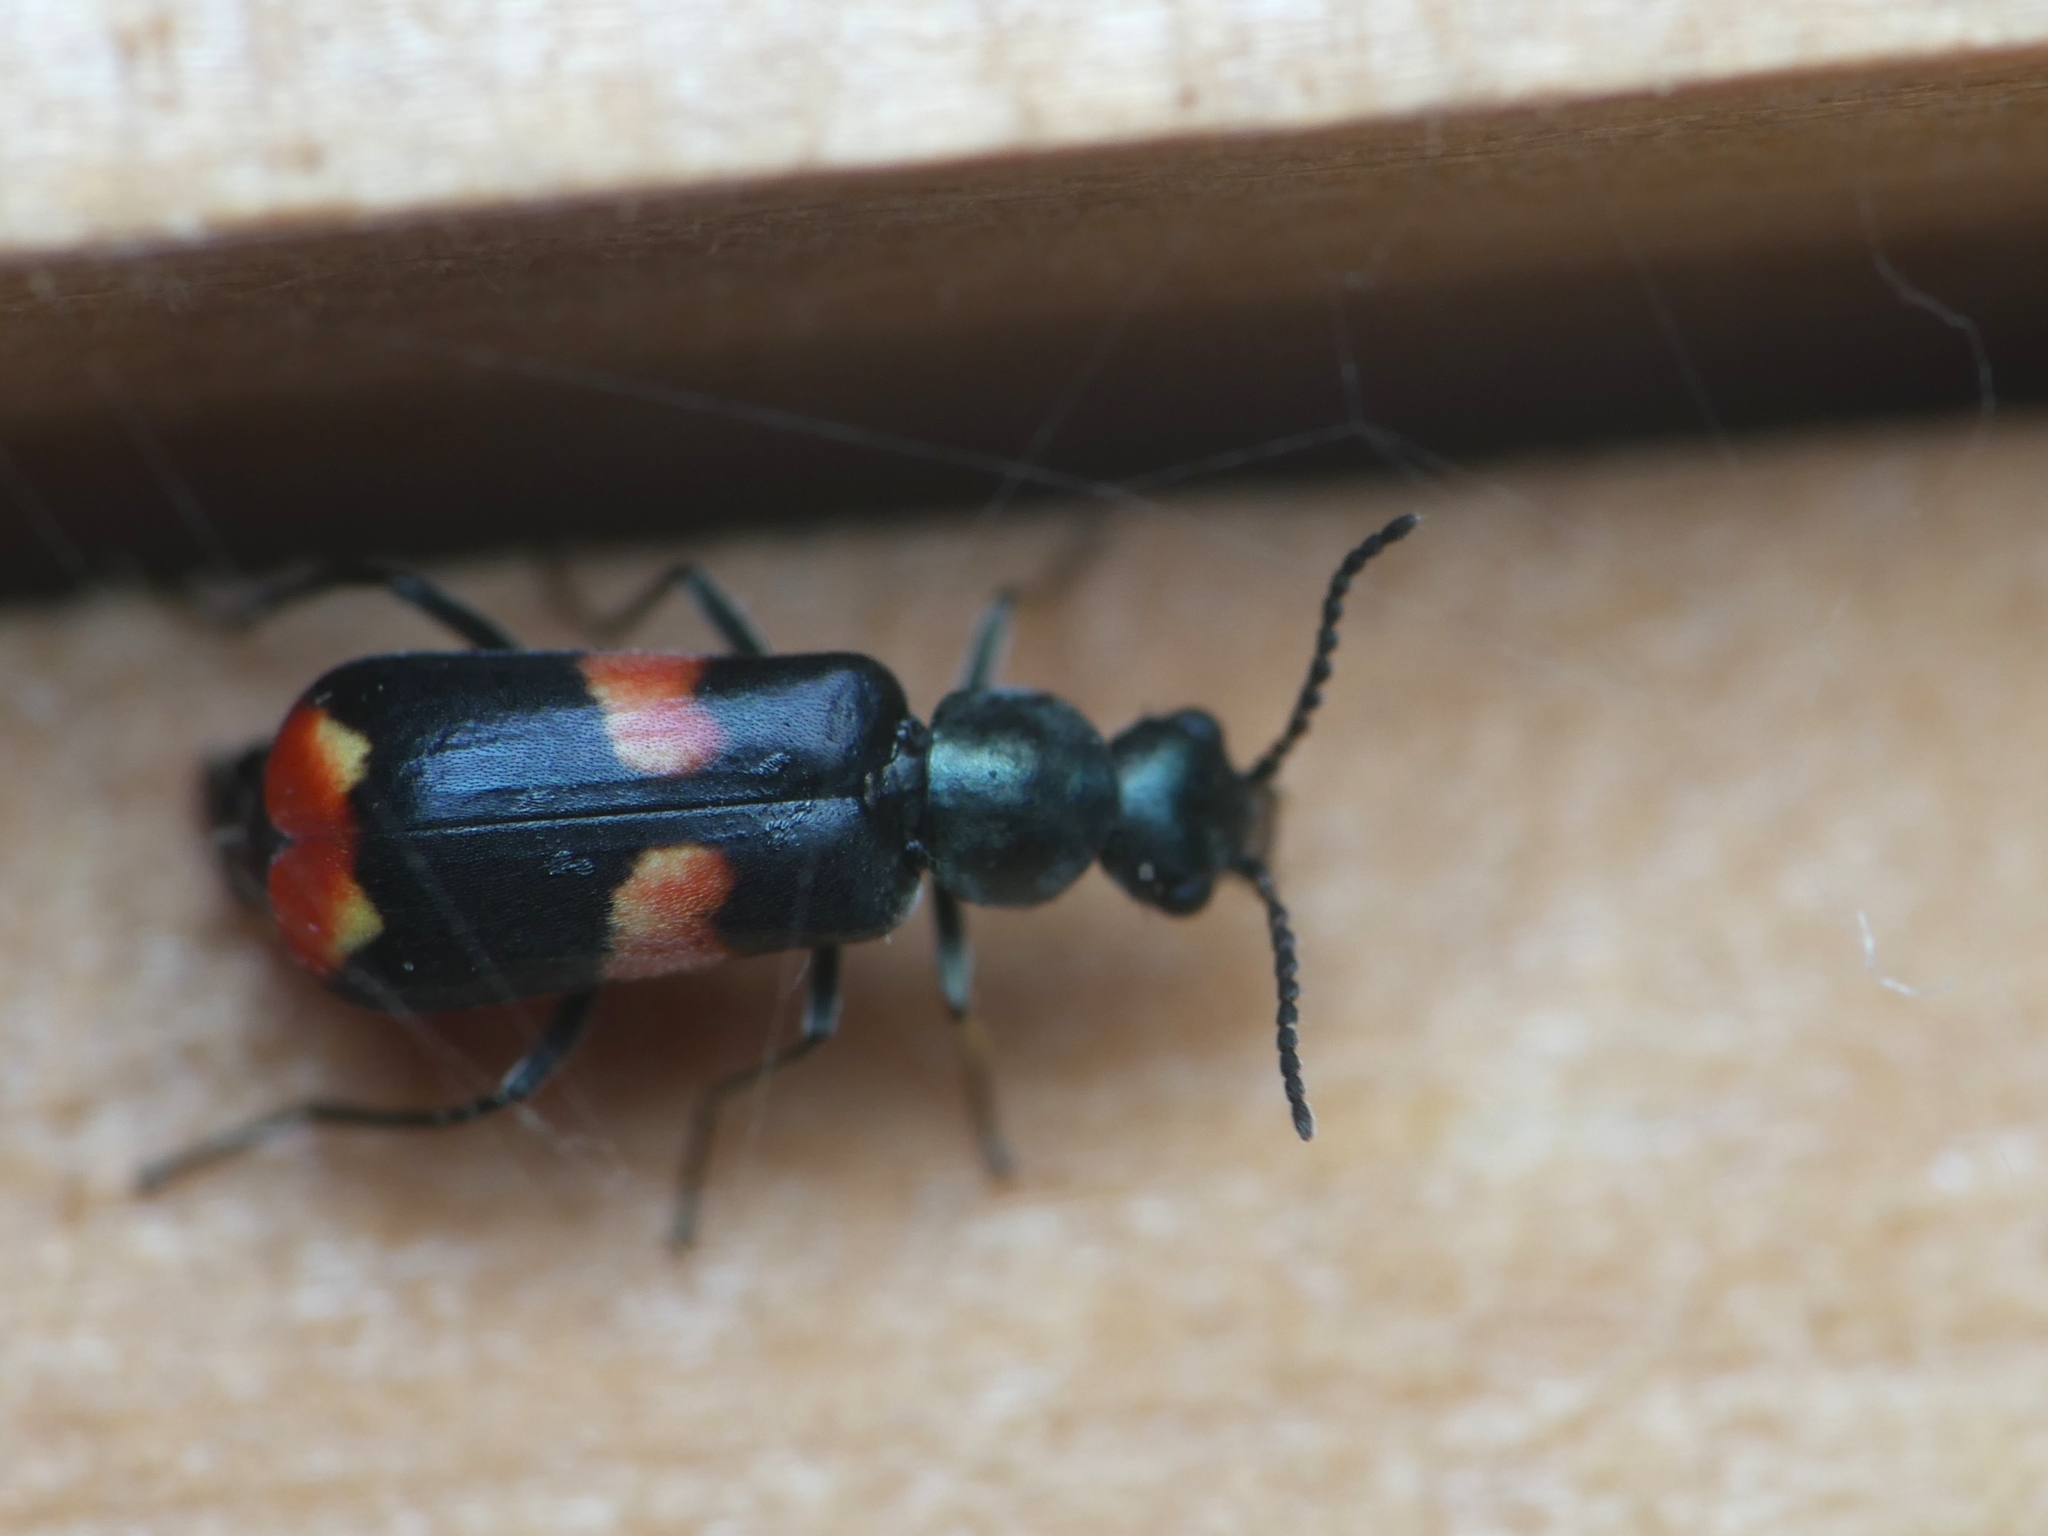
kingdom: Animalia
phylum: Arthropoda
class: Insecta
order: Coleoptera
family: Melyridae
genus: Anthocomus
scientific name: Anthocomus fasciatus
